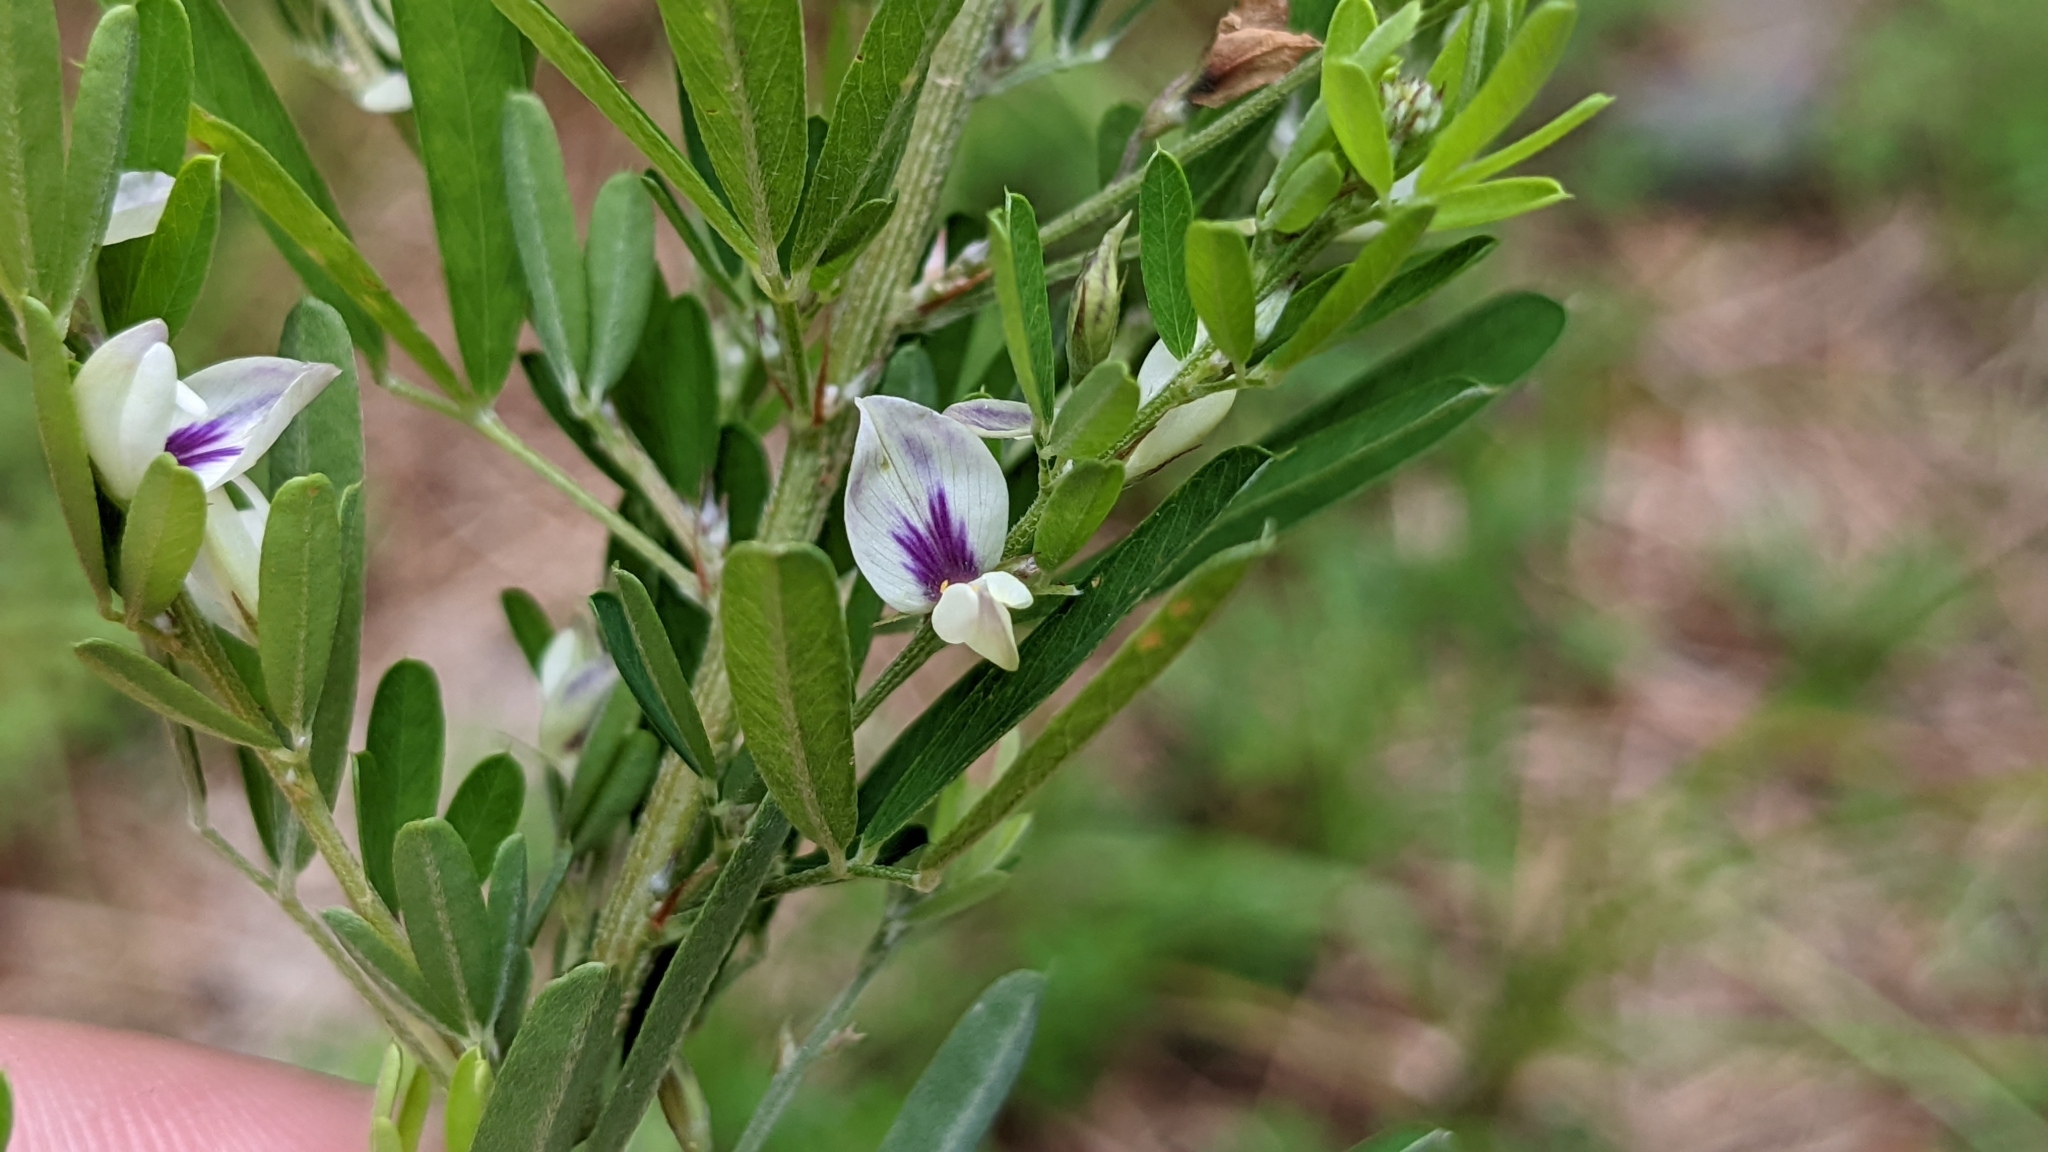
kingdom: Plantae
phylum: Tracheophyta
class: Magnoliopsida
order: Fabales
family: Fabaceae
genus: Lespedeza
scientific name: Lespedeza cuneata
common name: Chinese bush-clover
